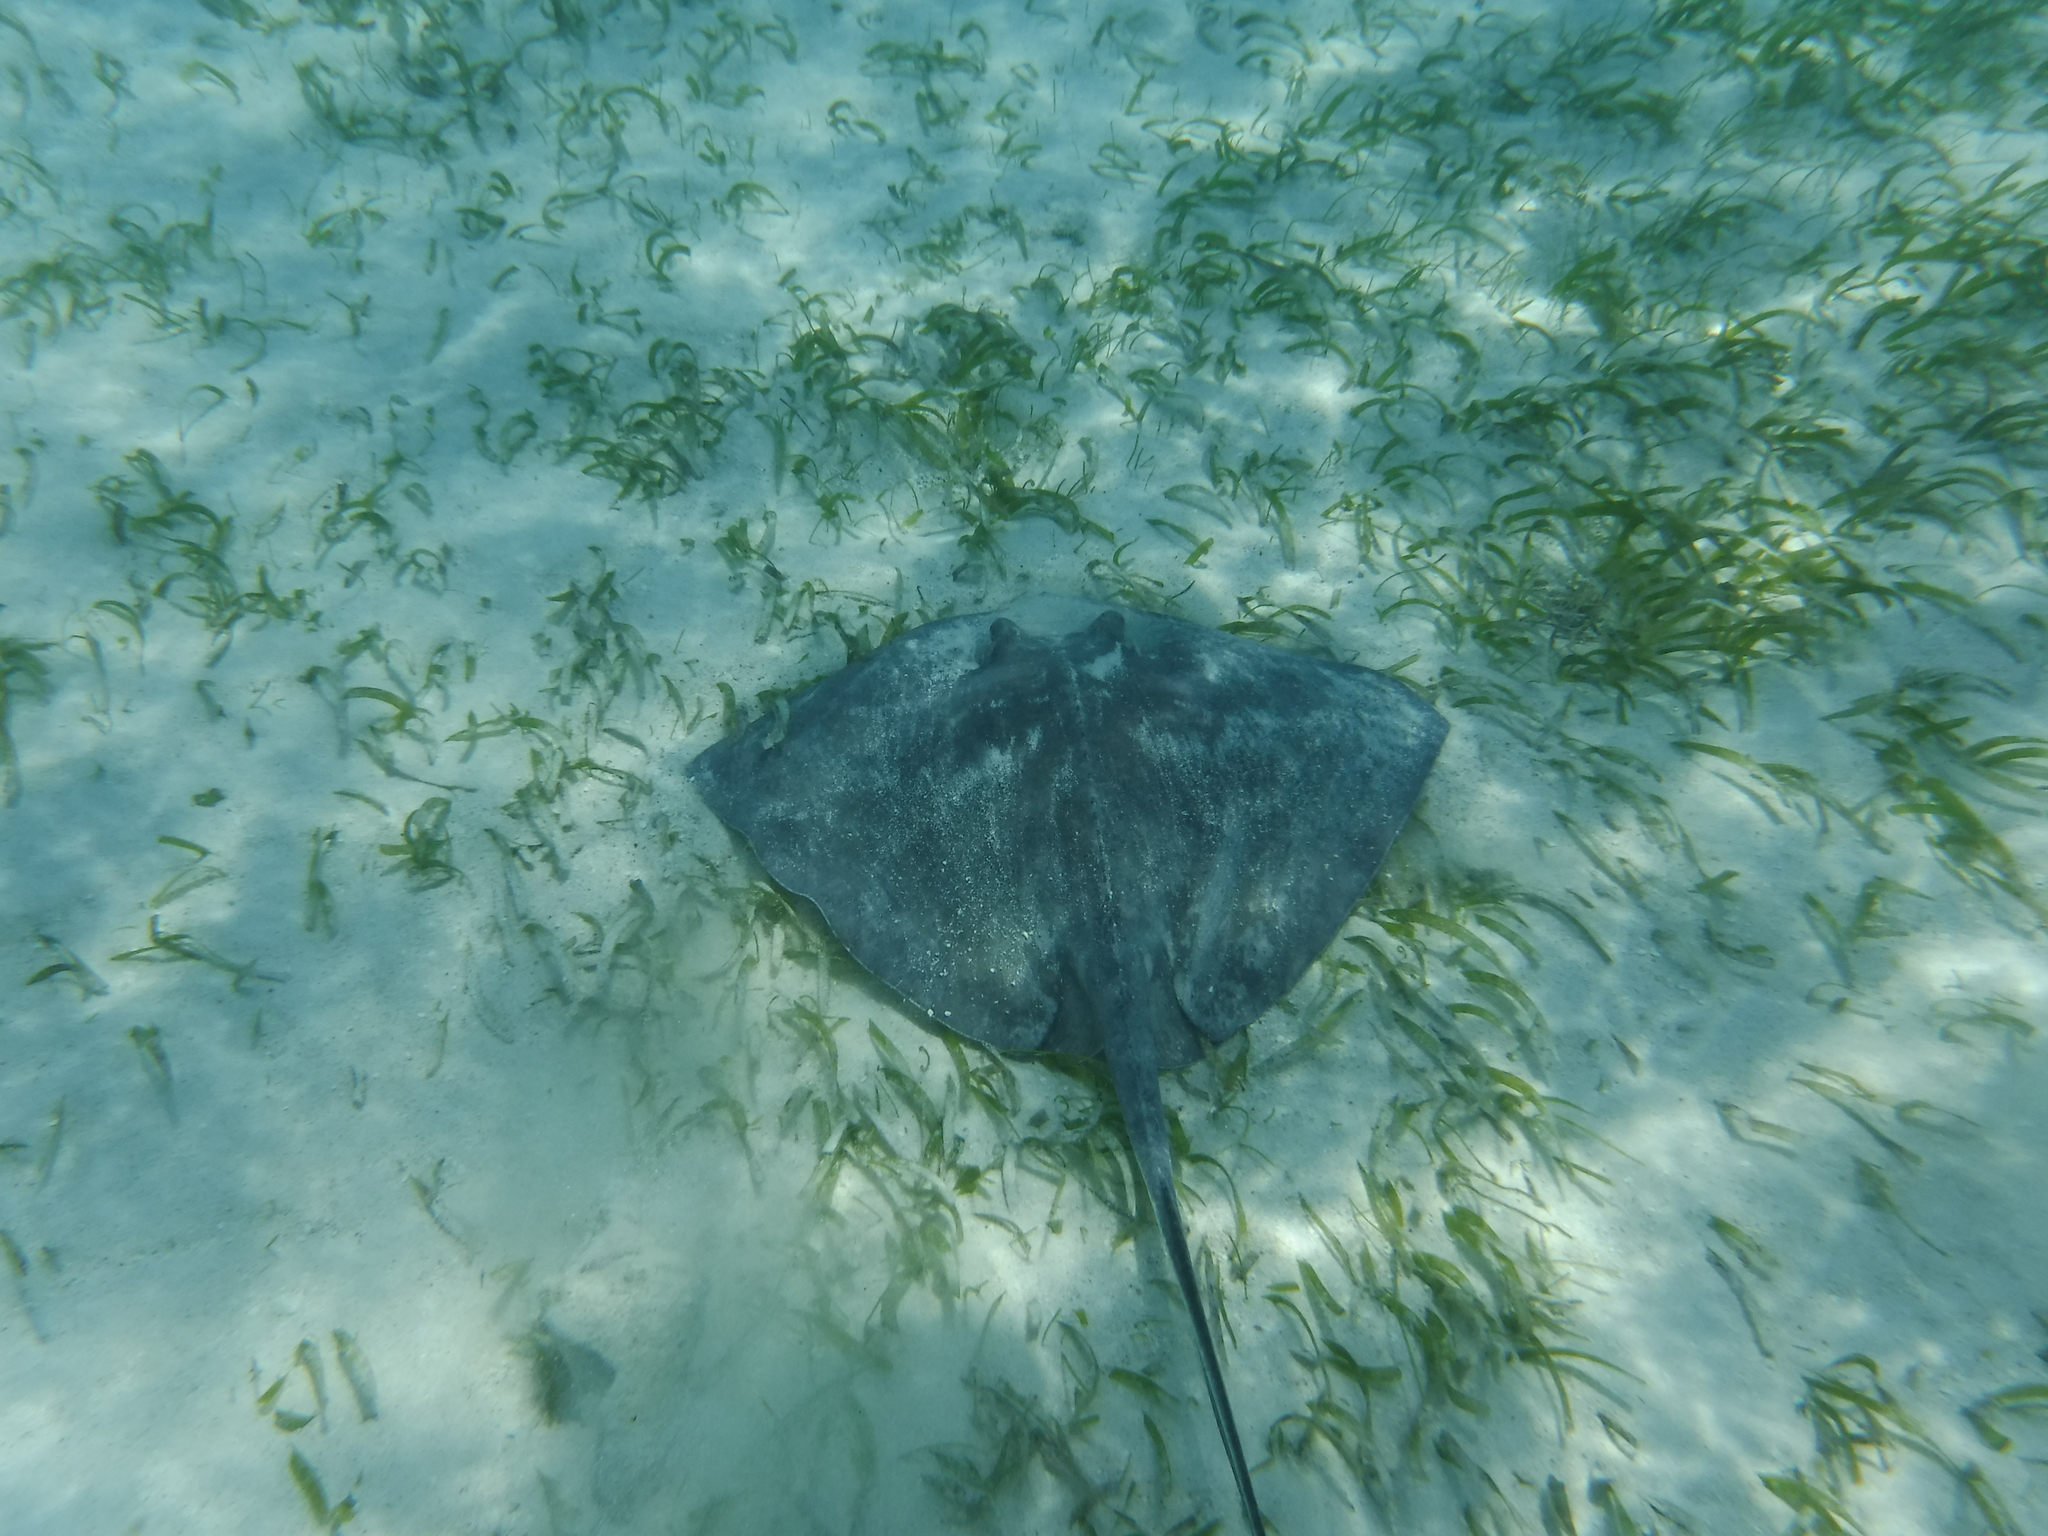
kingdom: Animalia
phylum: Chordata
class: Elasmobranchii
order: Myliobatiformes
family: Dasyatidae
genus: Hypanus
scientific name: Hypanus americanus
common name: Southern stingray
